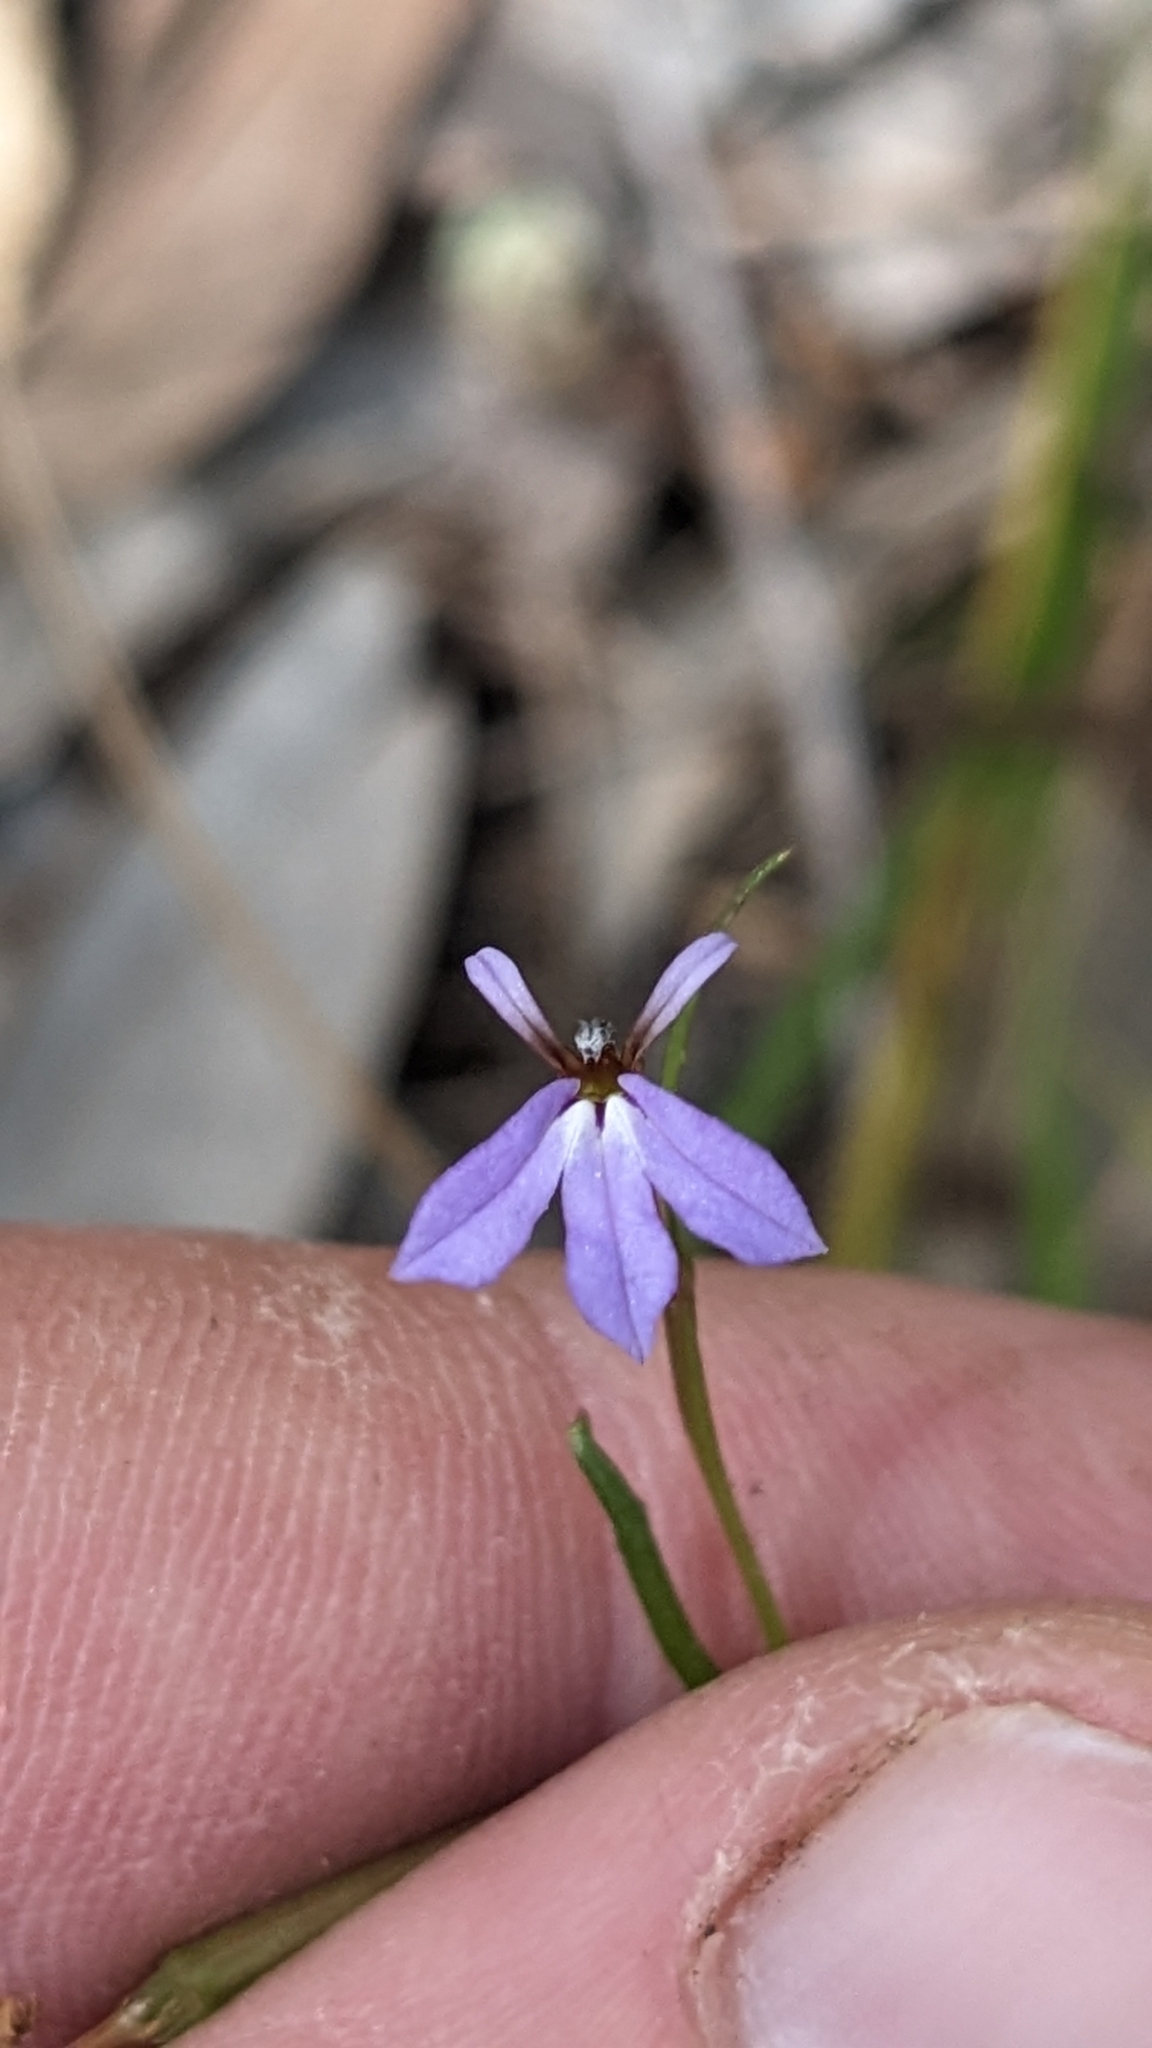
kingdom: Plantae
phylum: Tracheophyta
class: Magnoliopsida
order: Asterales
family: Campanulaceae
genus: Lobelia
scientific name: Lobelia anceps
